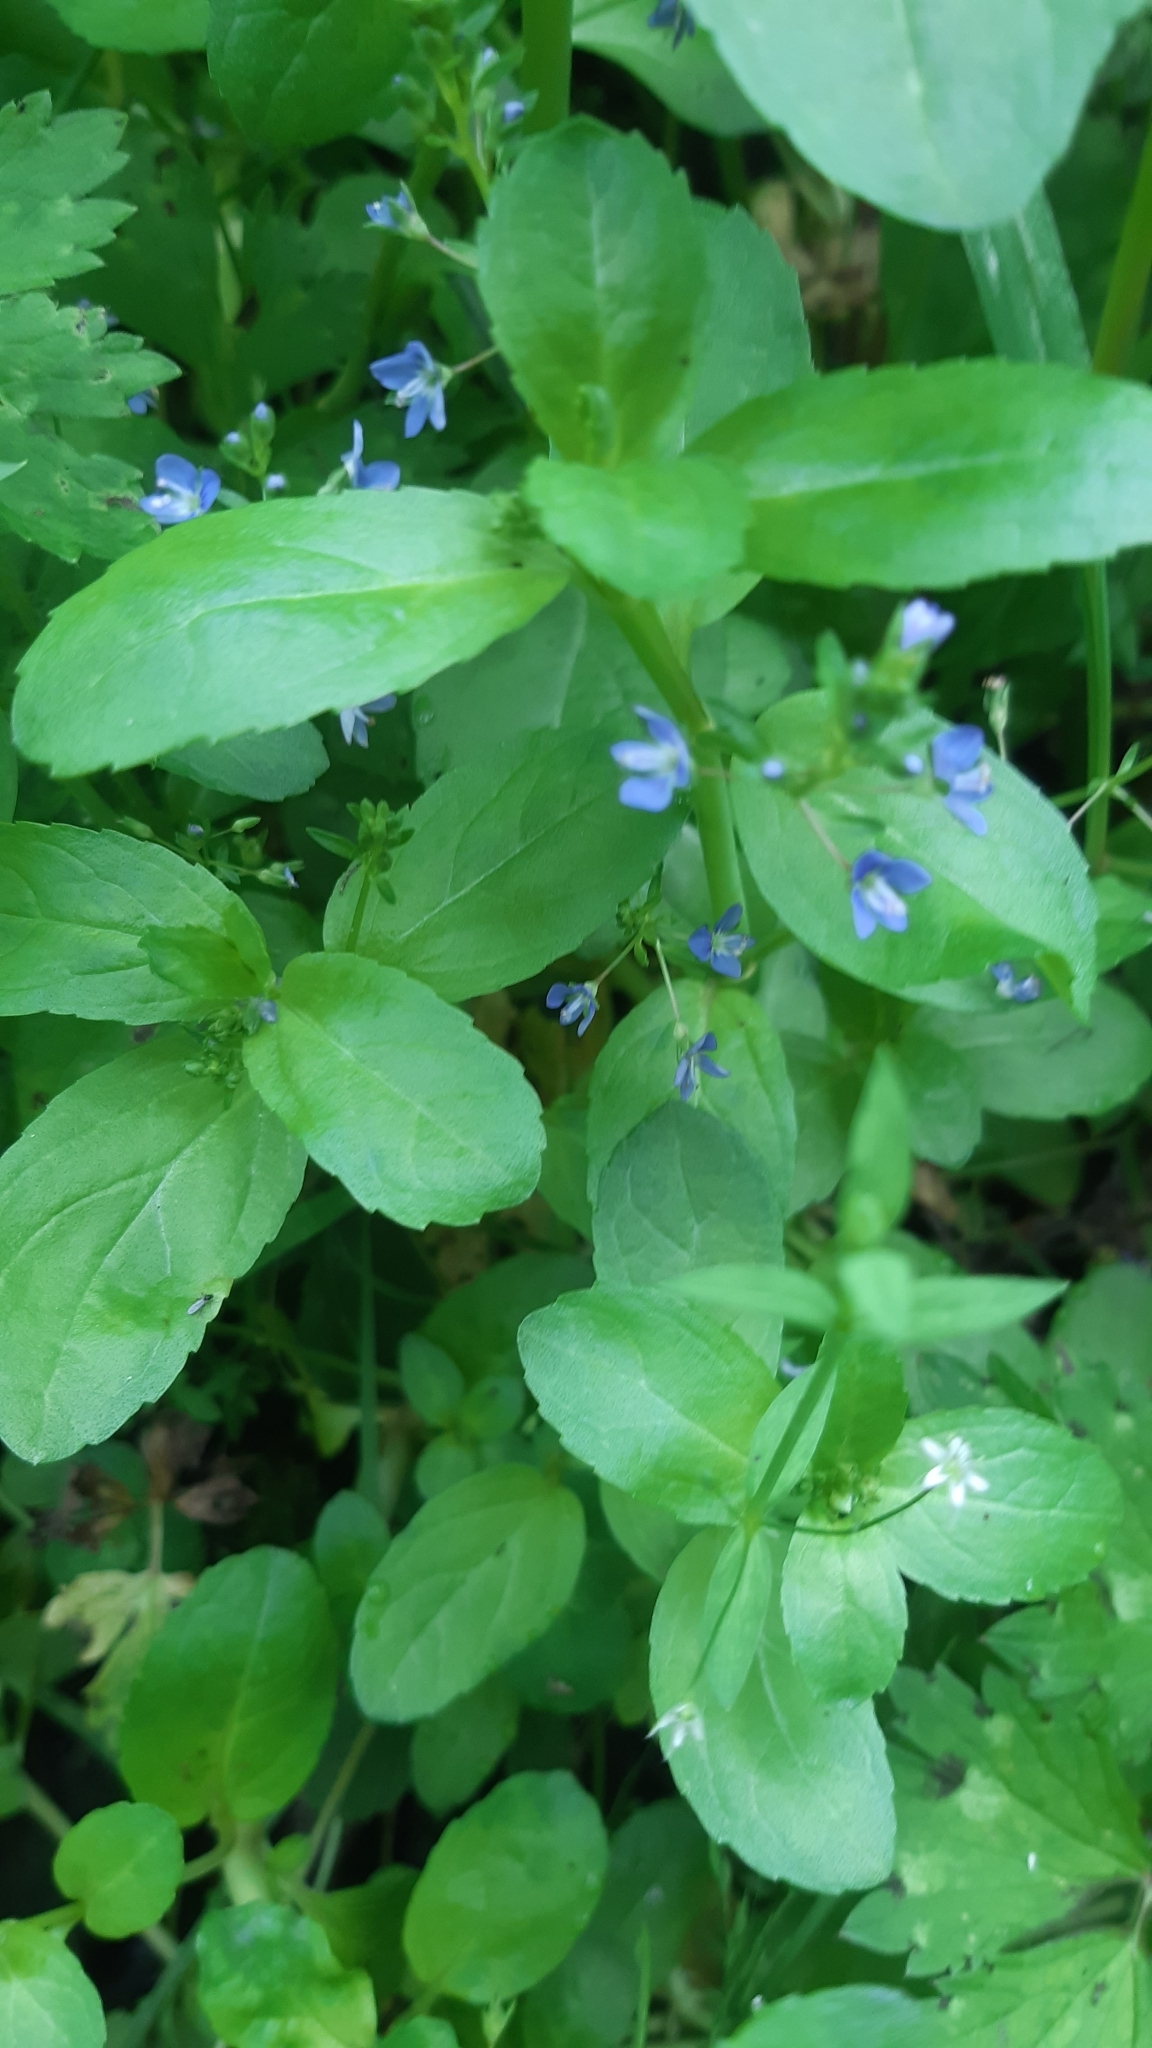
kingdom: Plantae
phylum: Tracheophyta
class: Magnoliopsida
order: Lamiales
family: Plantaginaceae
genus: Veronica
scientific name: Veronica beccabunga
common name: Brooklime
